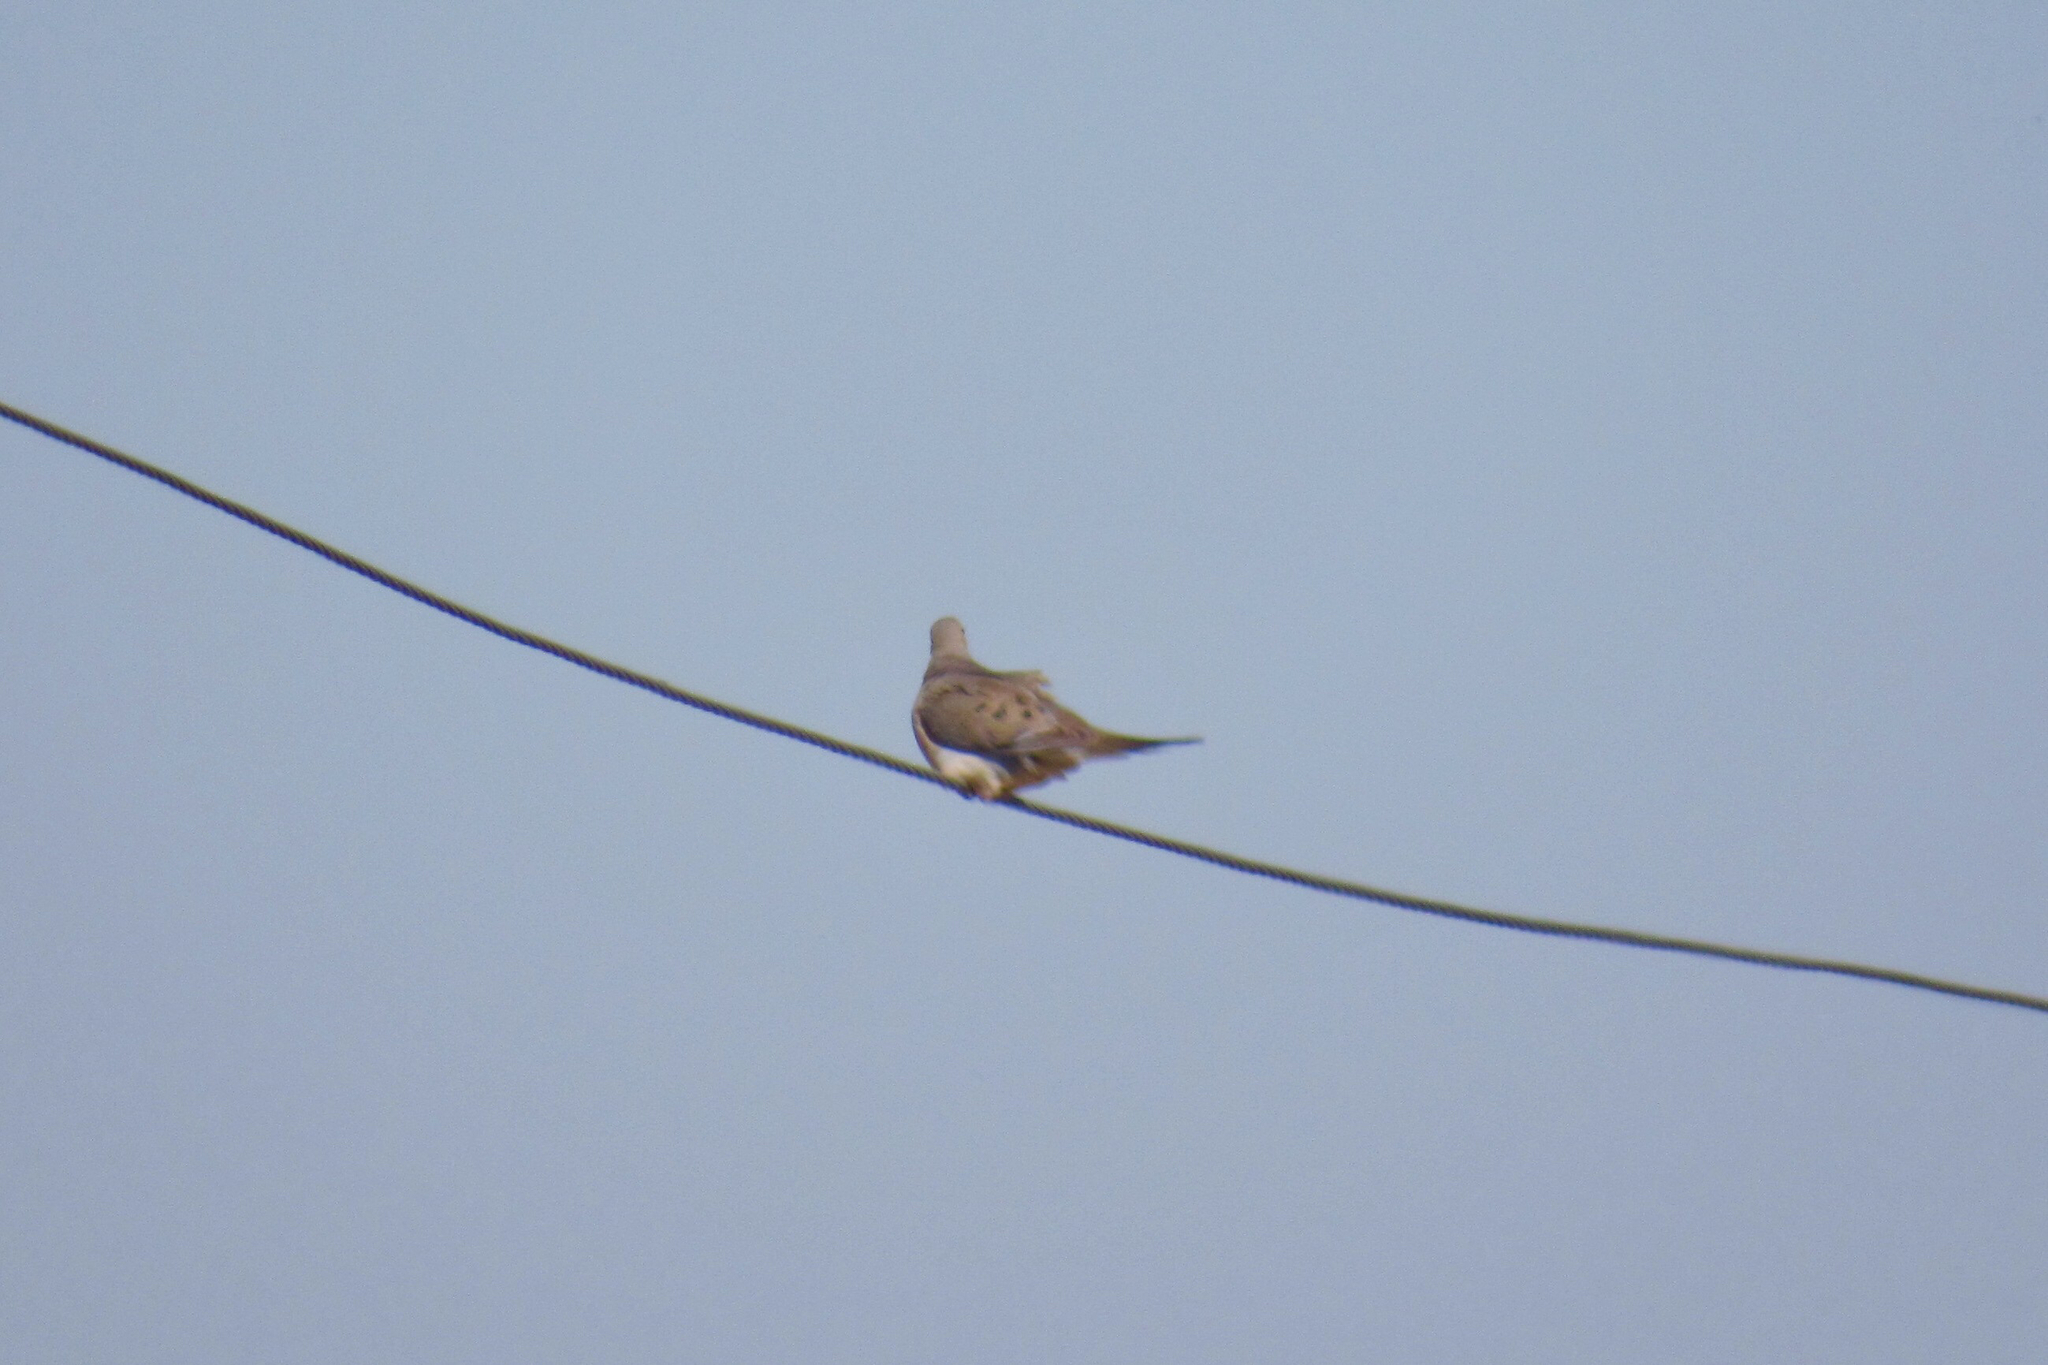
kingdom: Animalia
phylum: Chordata
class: Aves
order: Columbiformes
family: Columbidae
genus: Zenaida
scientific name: Zenaida macroura
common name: Mourning dove
